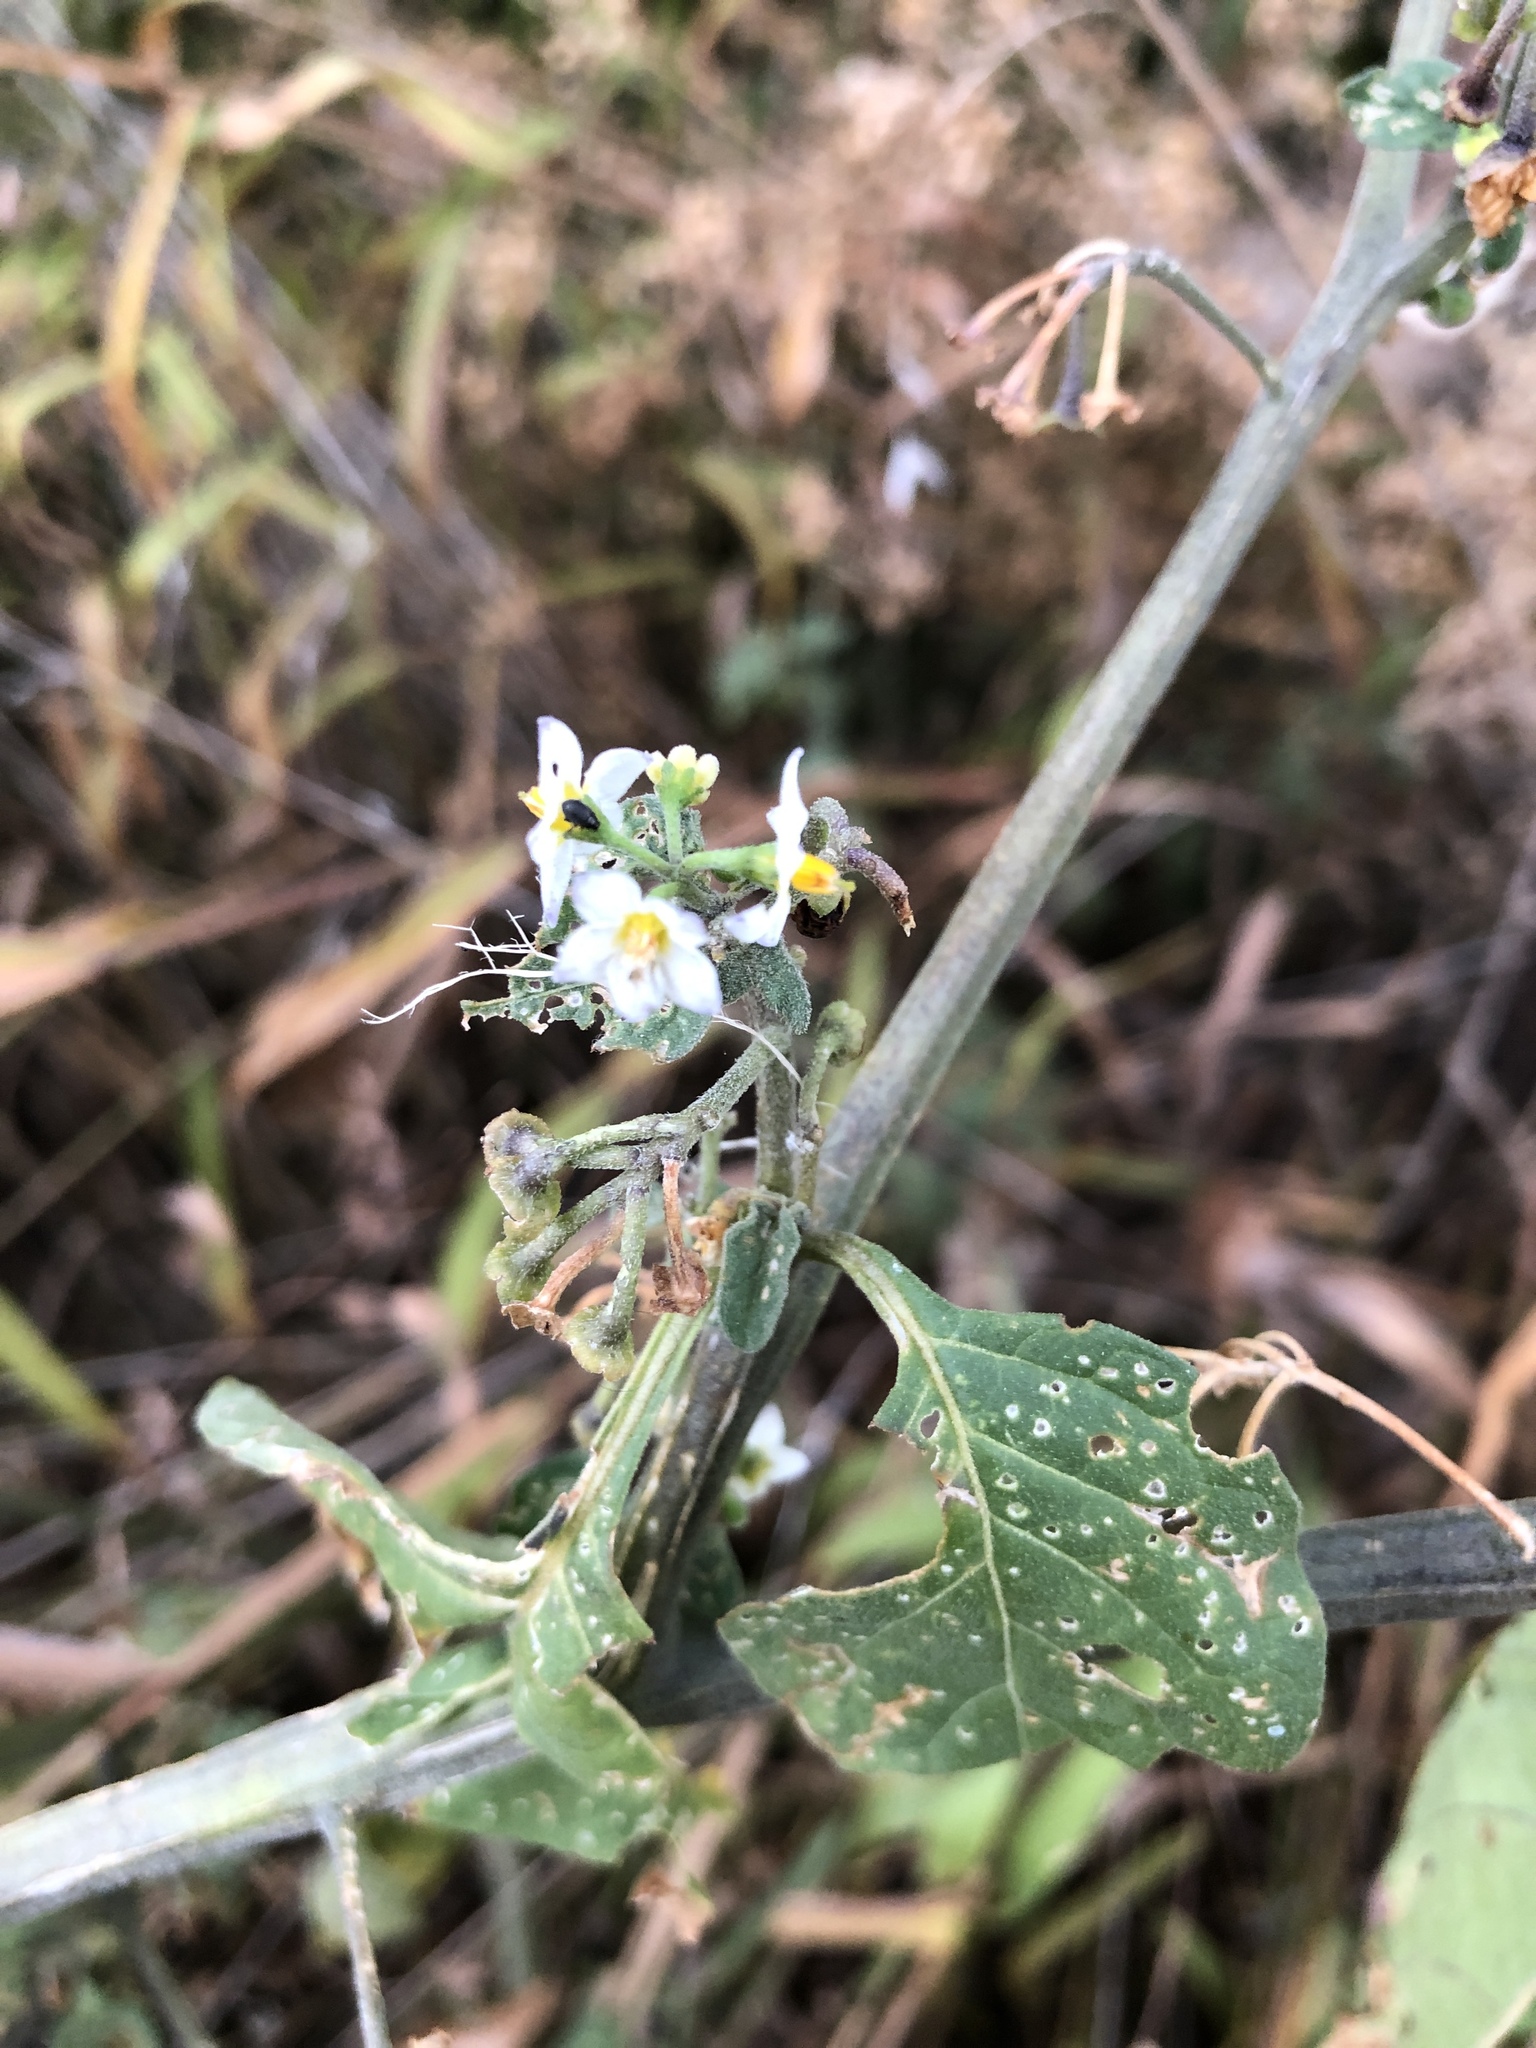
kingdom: Plantae
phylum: Tracheophyta
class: Magnoliopsida
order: Solanales
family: Solanaceae
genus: Solanum
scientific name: Solanum nigrum
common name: Black nightshade
